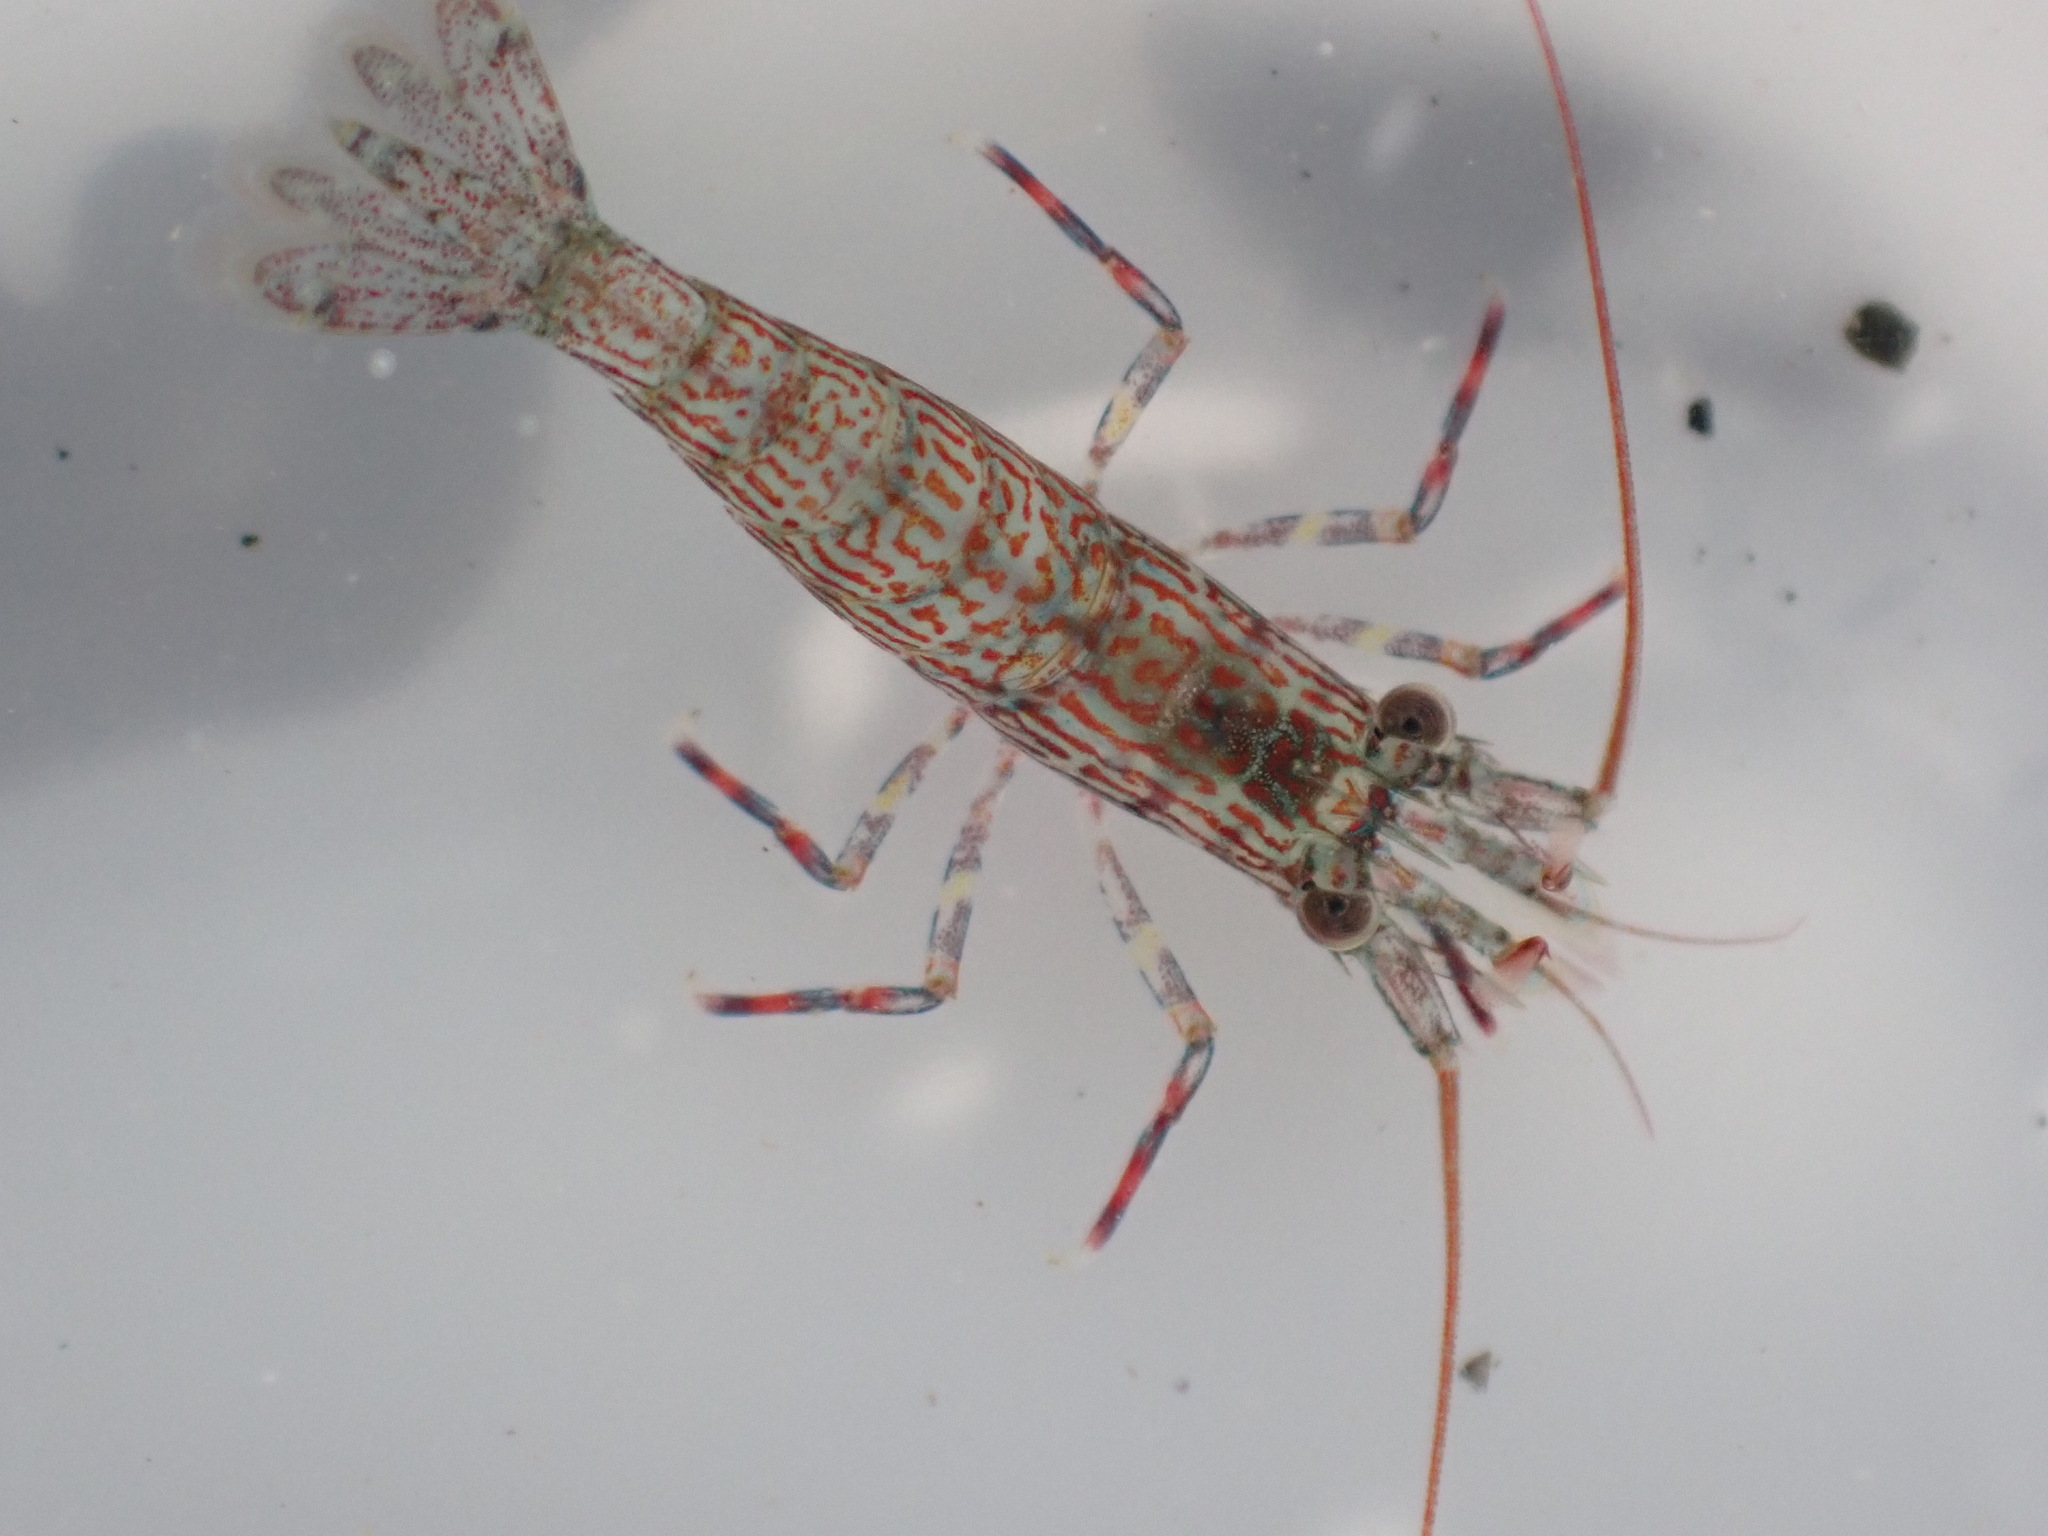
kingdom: Animalia
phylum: Arthropoda
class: Malacostraca
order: Decapoda
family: Hippolytidae
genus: Alope
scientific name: Alope spinifrons
